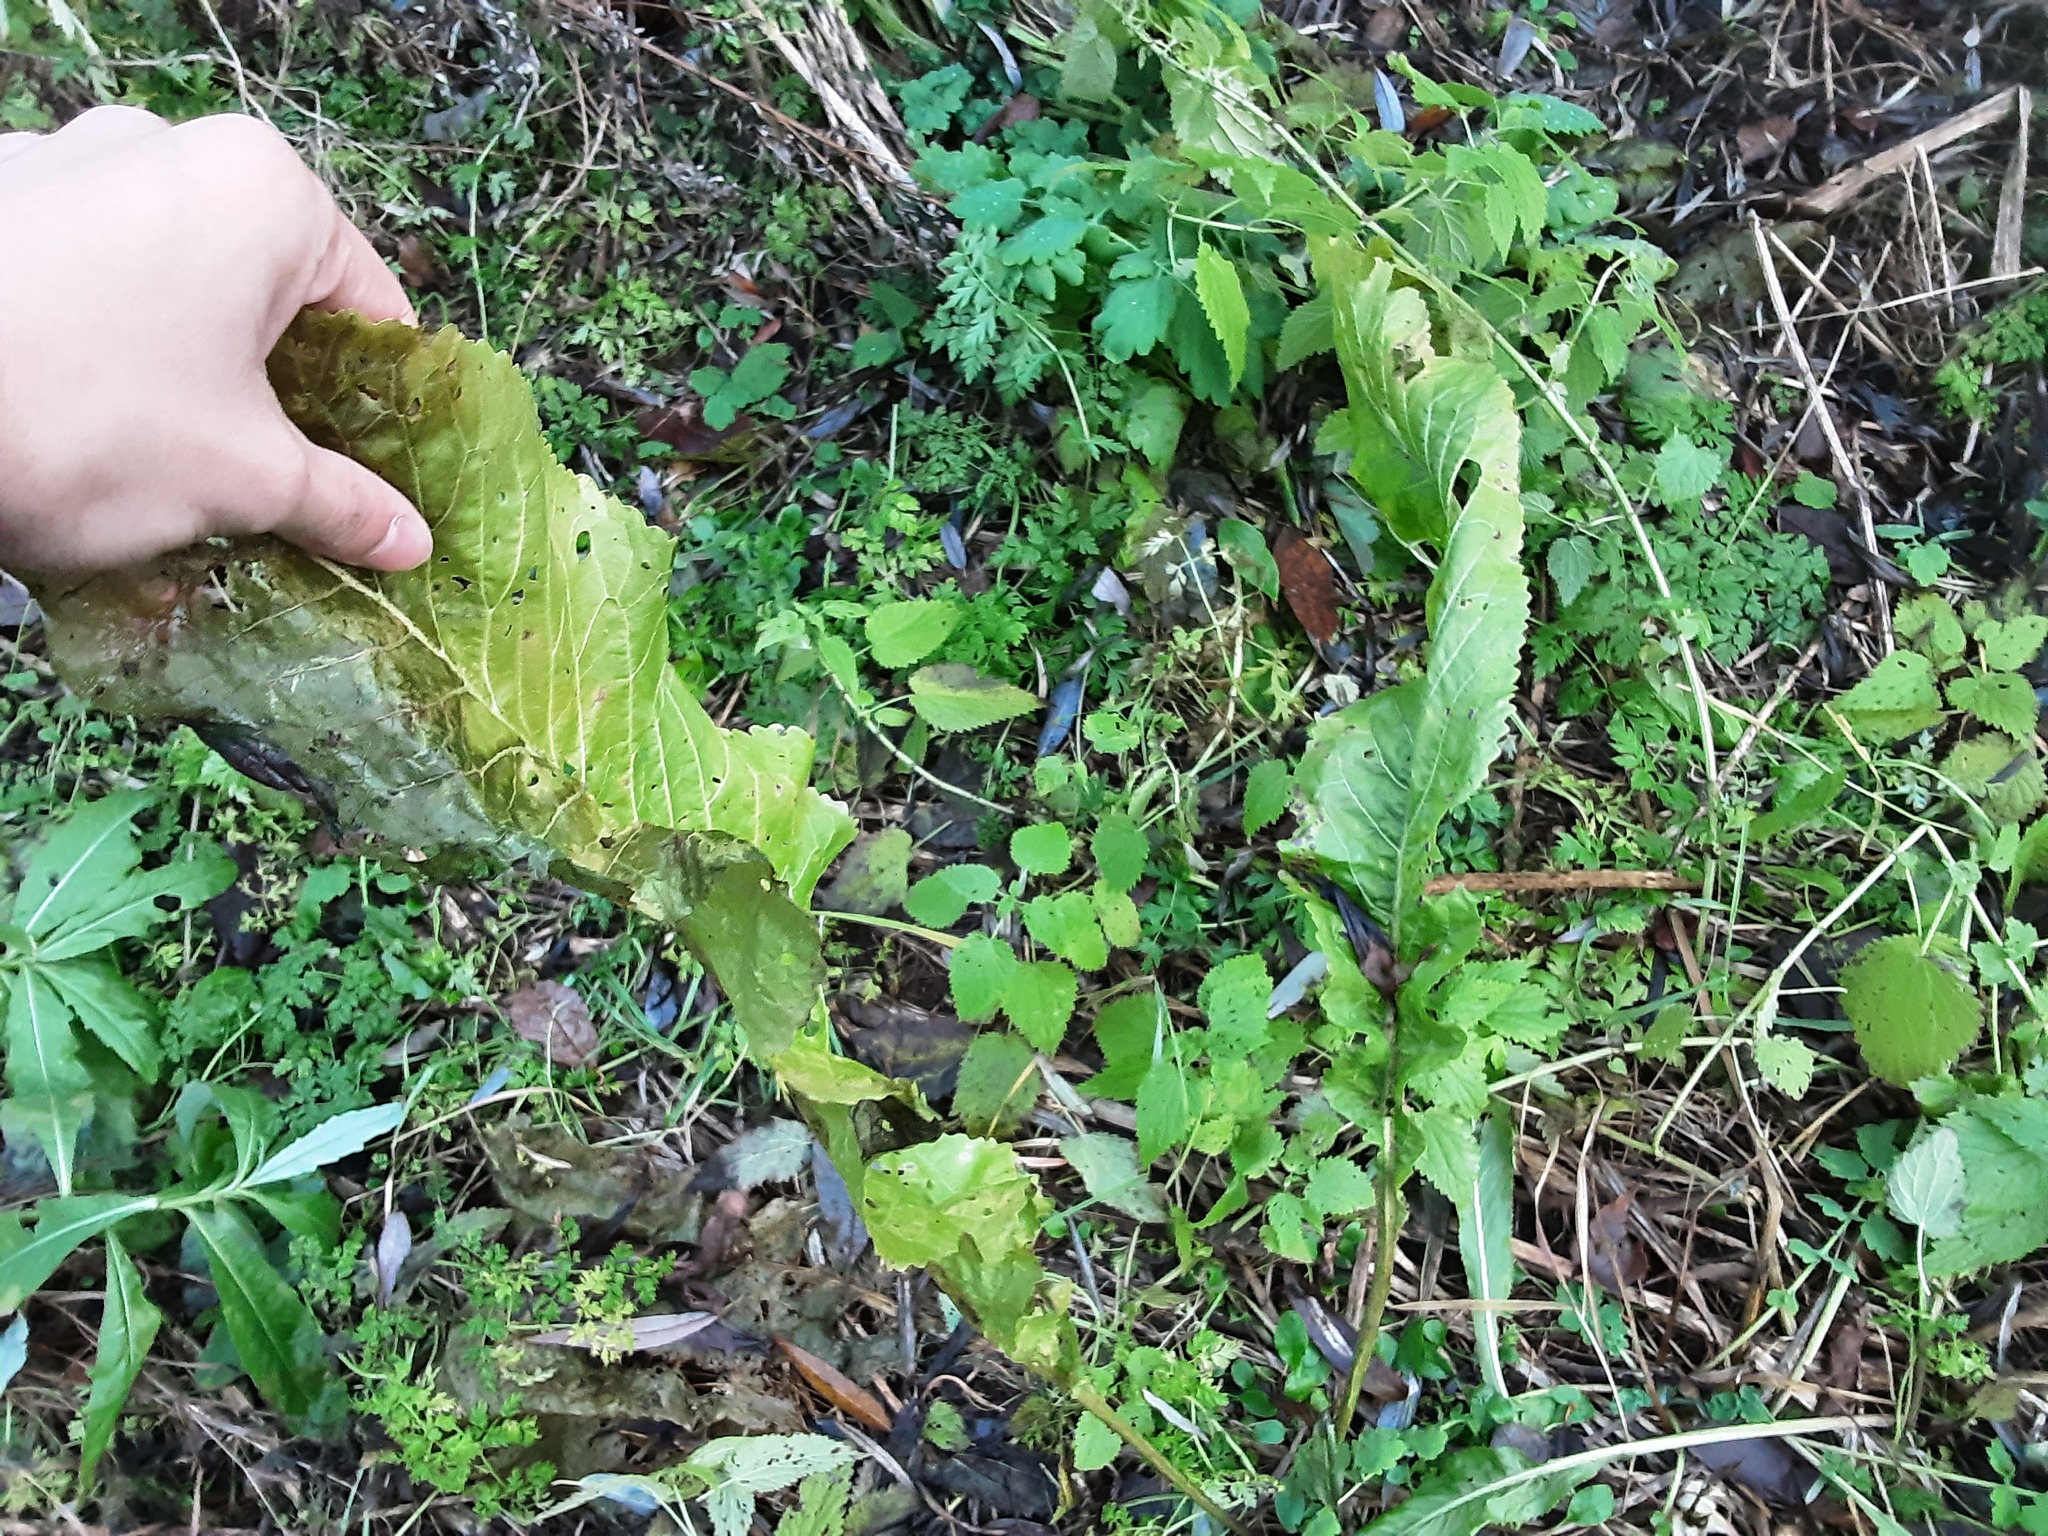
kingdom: Plantae
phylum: Tracheophyta
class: Magnoliopsida
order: Brassicales
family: Brassicaceae
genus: Armoracia
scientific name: Armoracia rusticana
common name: Horseradish
